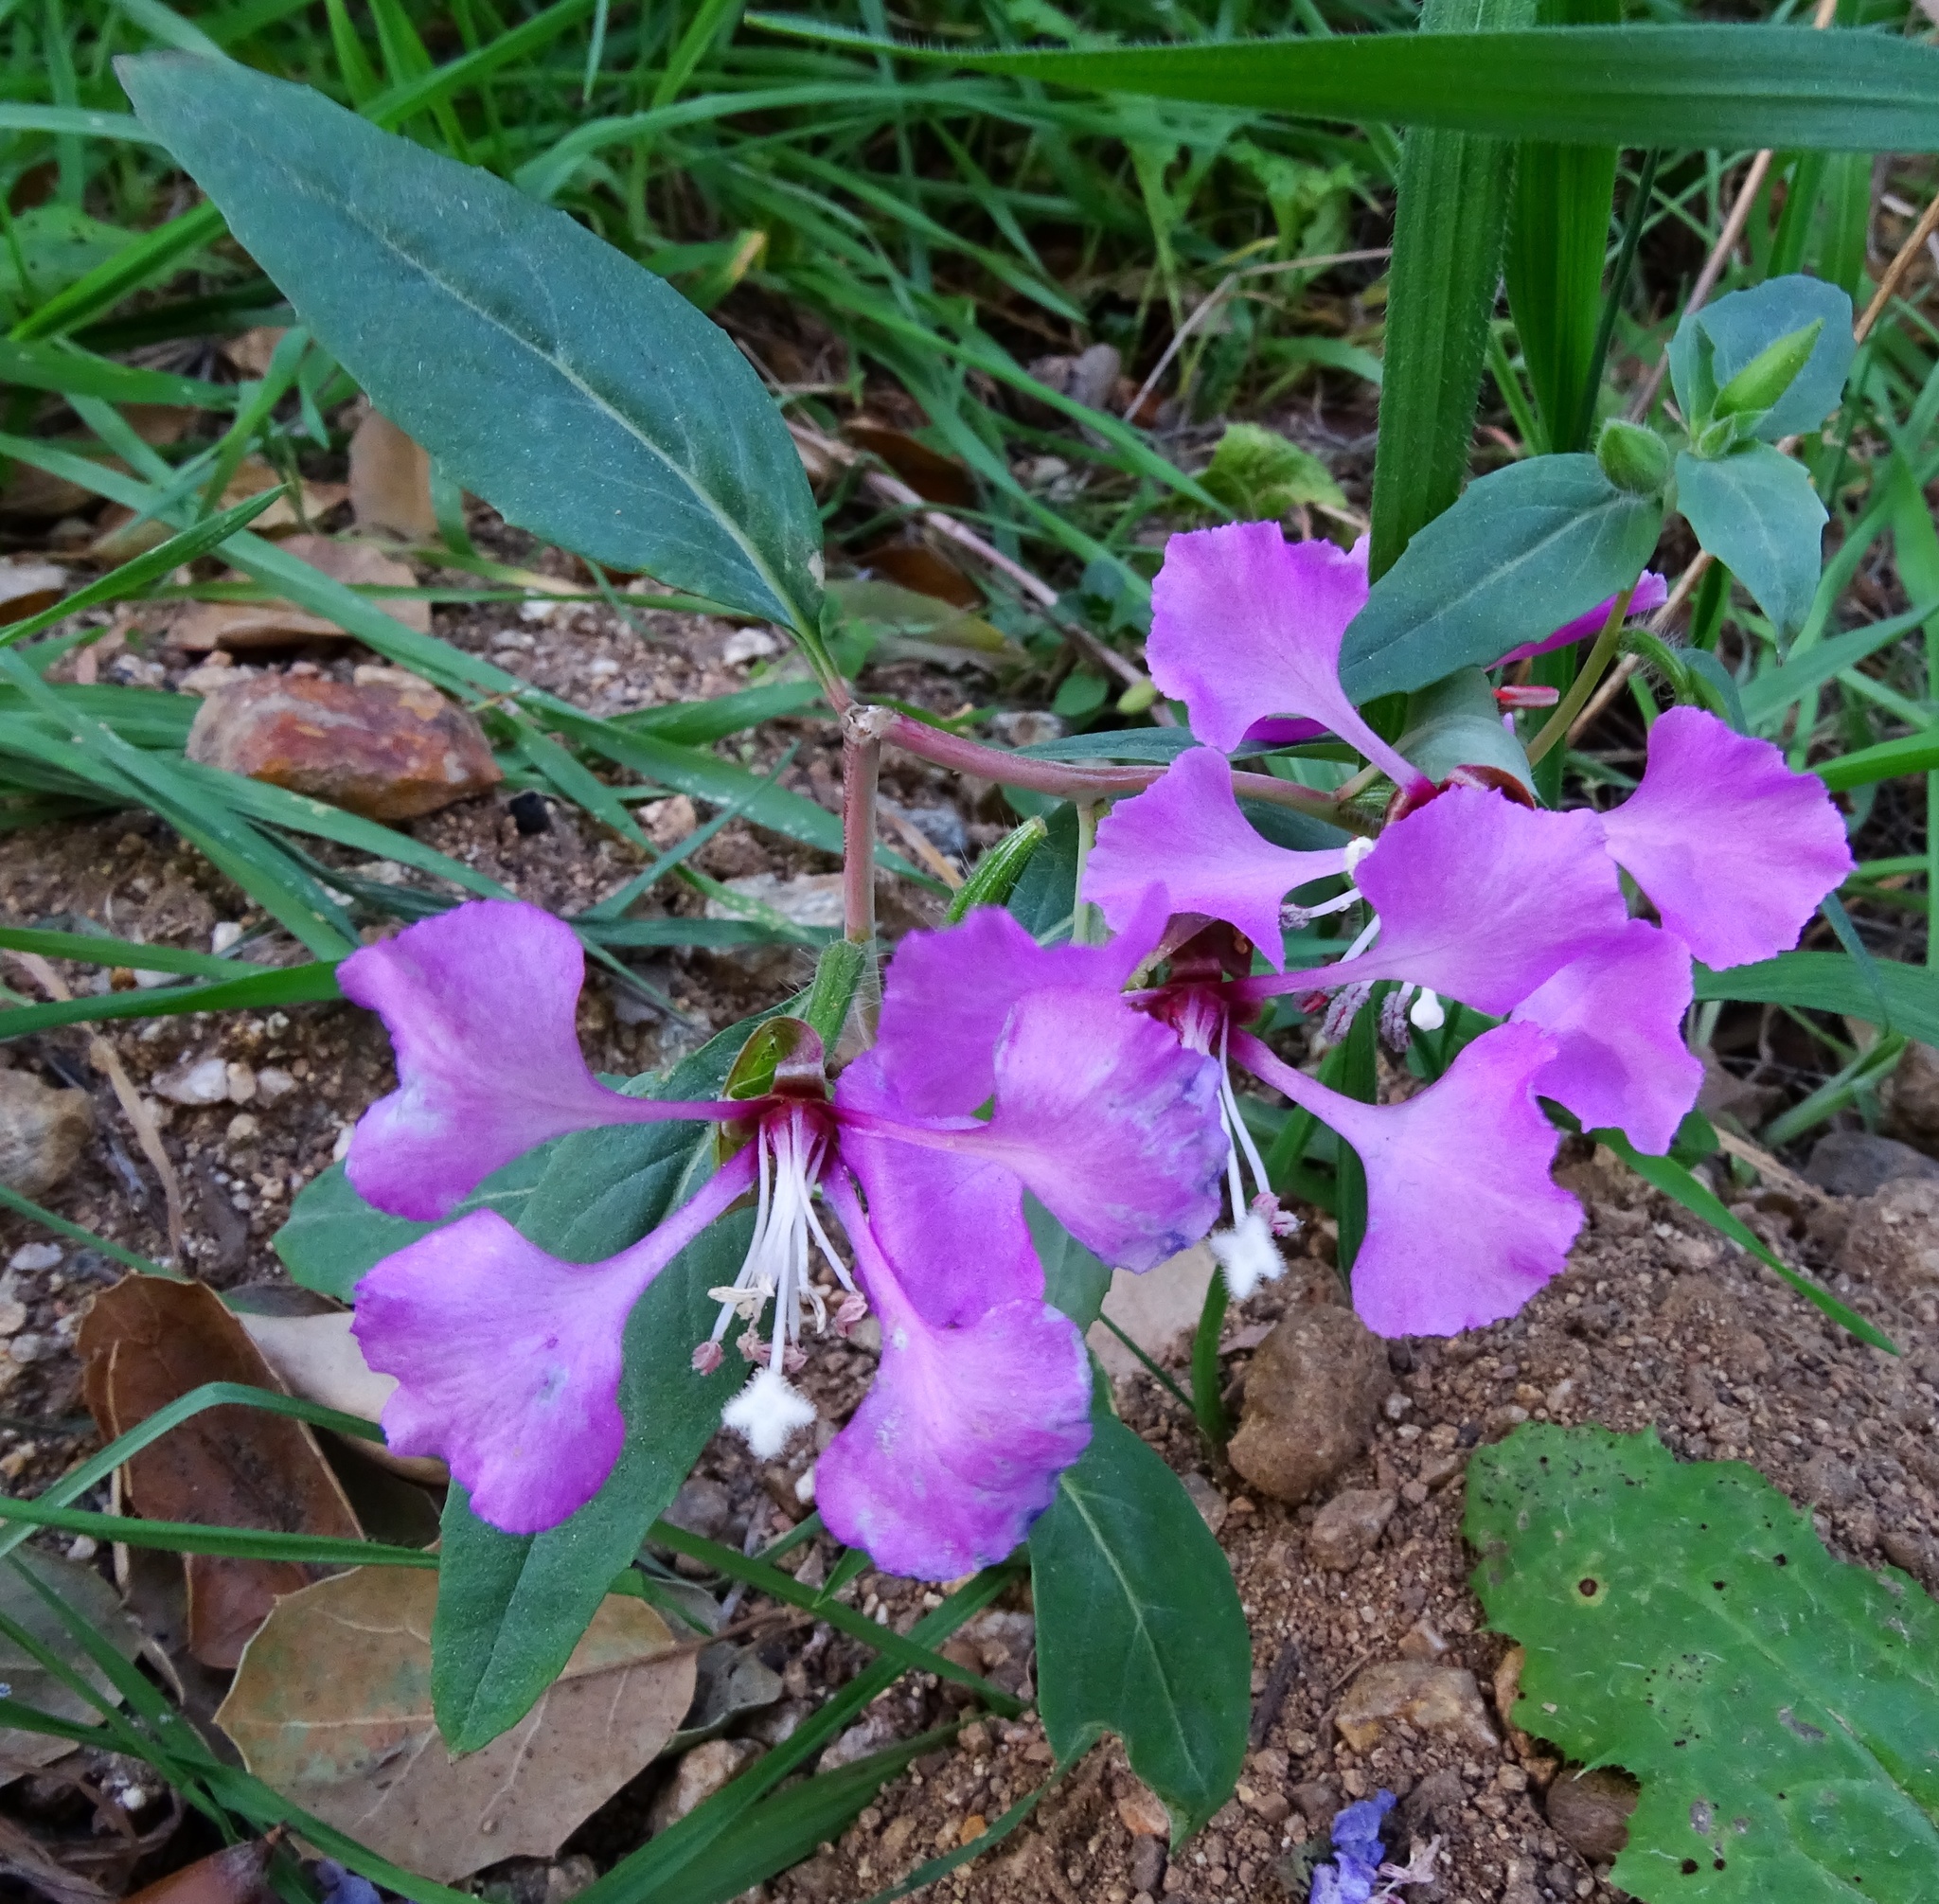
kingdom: Plantae
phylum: Tracheophyta
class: Magnoliopsida
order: Myrtales
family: Onagraceae
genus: Clarkia
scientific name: Clarkia unguiculata
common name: Clarkia
